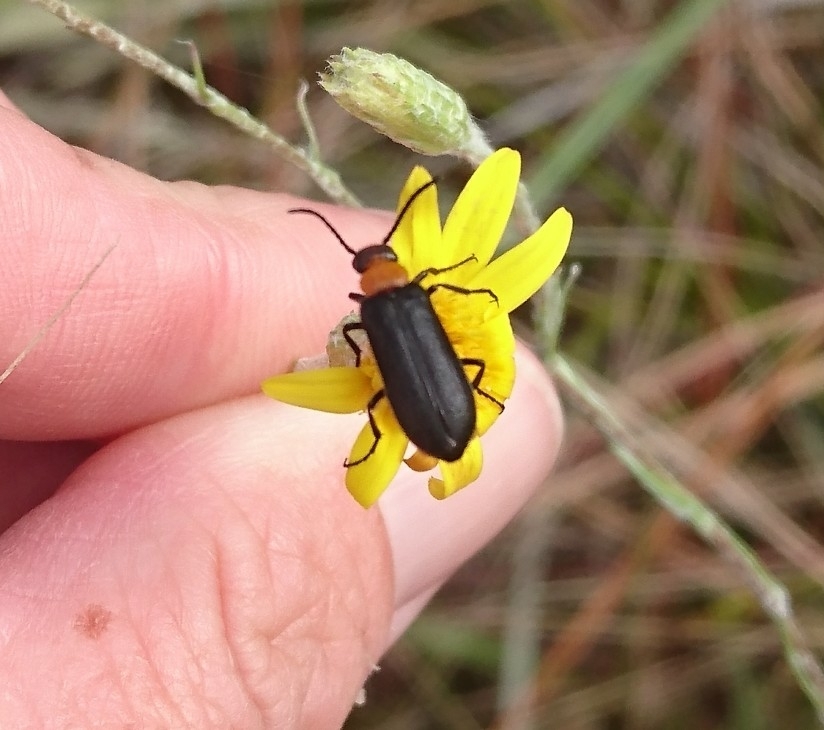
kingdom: Animalia
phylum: Arthropoda
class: Insecta
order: Coleoptera
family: Meloidae
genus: Nemognatha
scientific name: Nemognatha nemorensis
